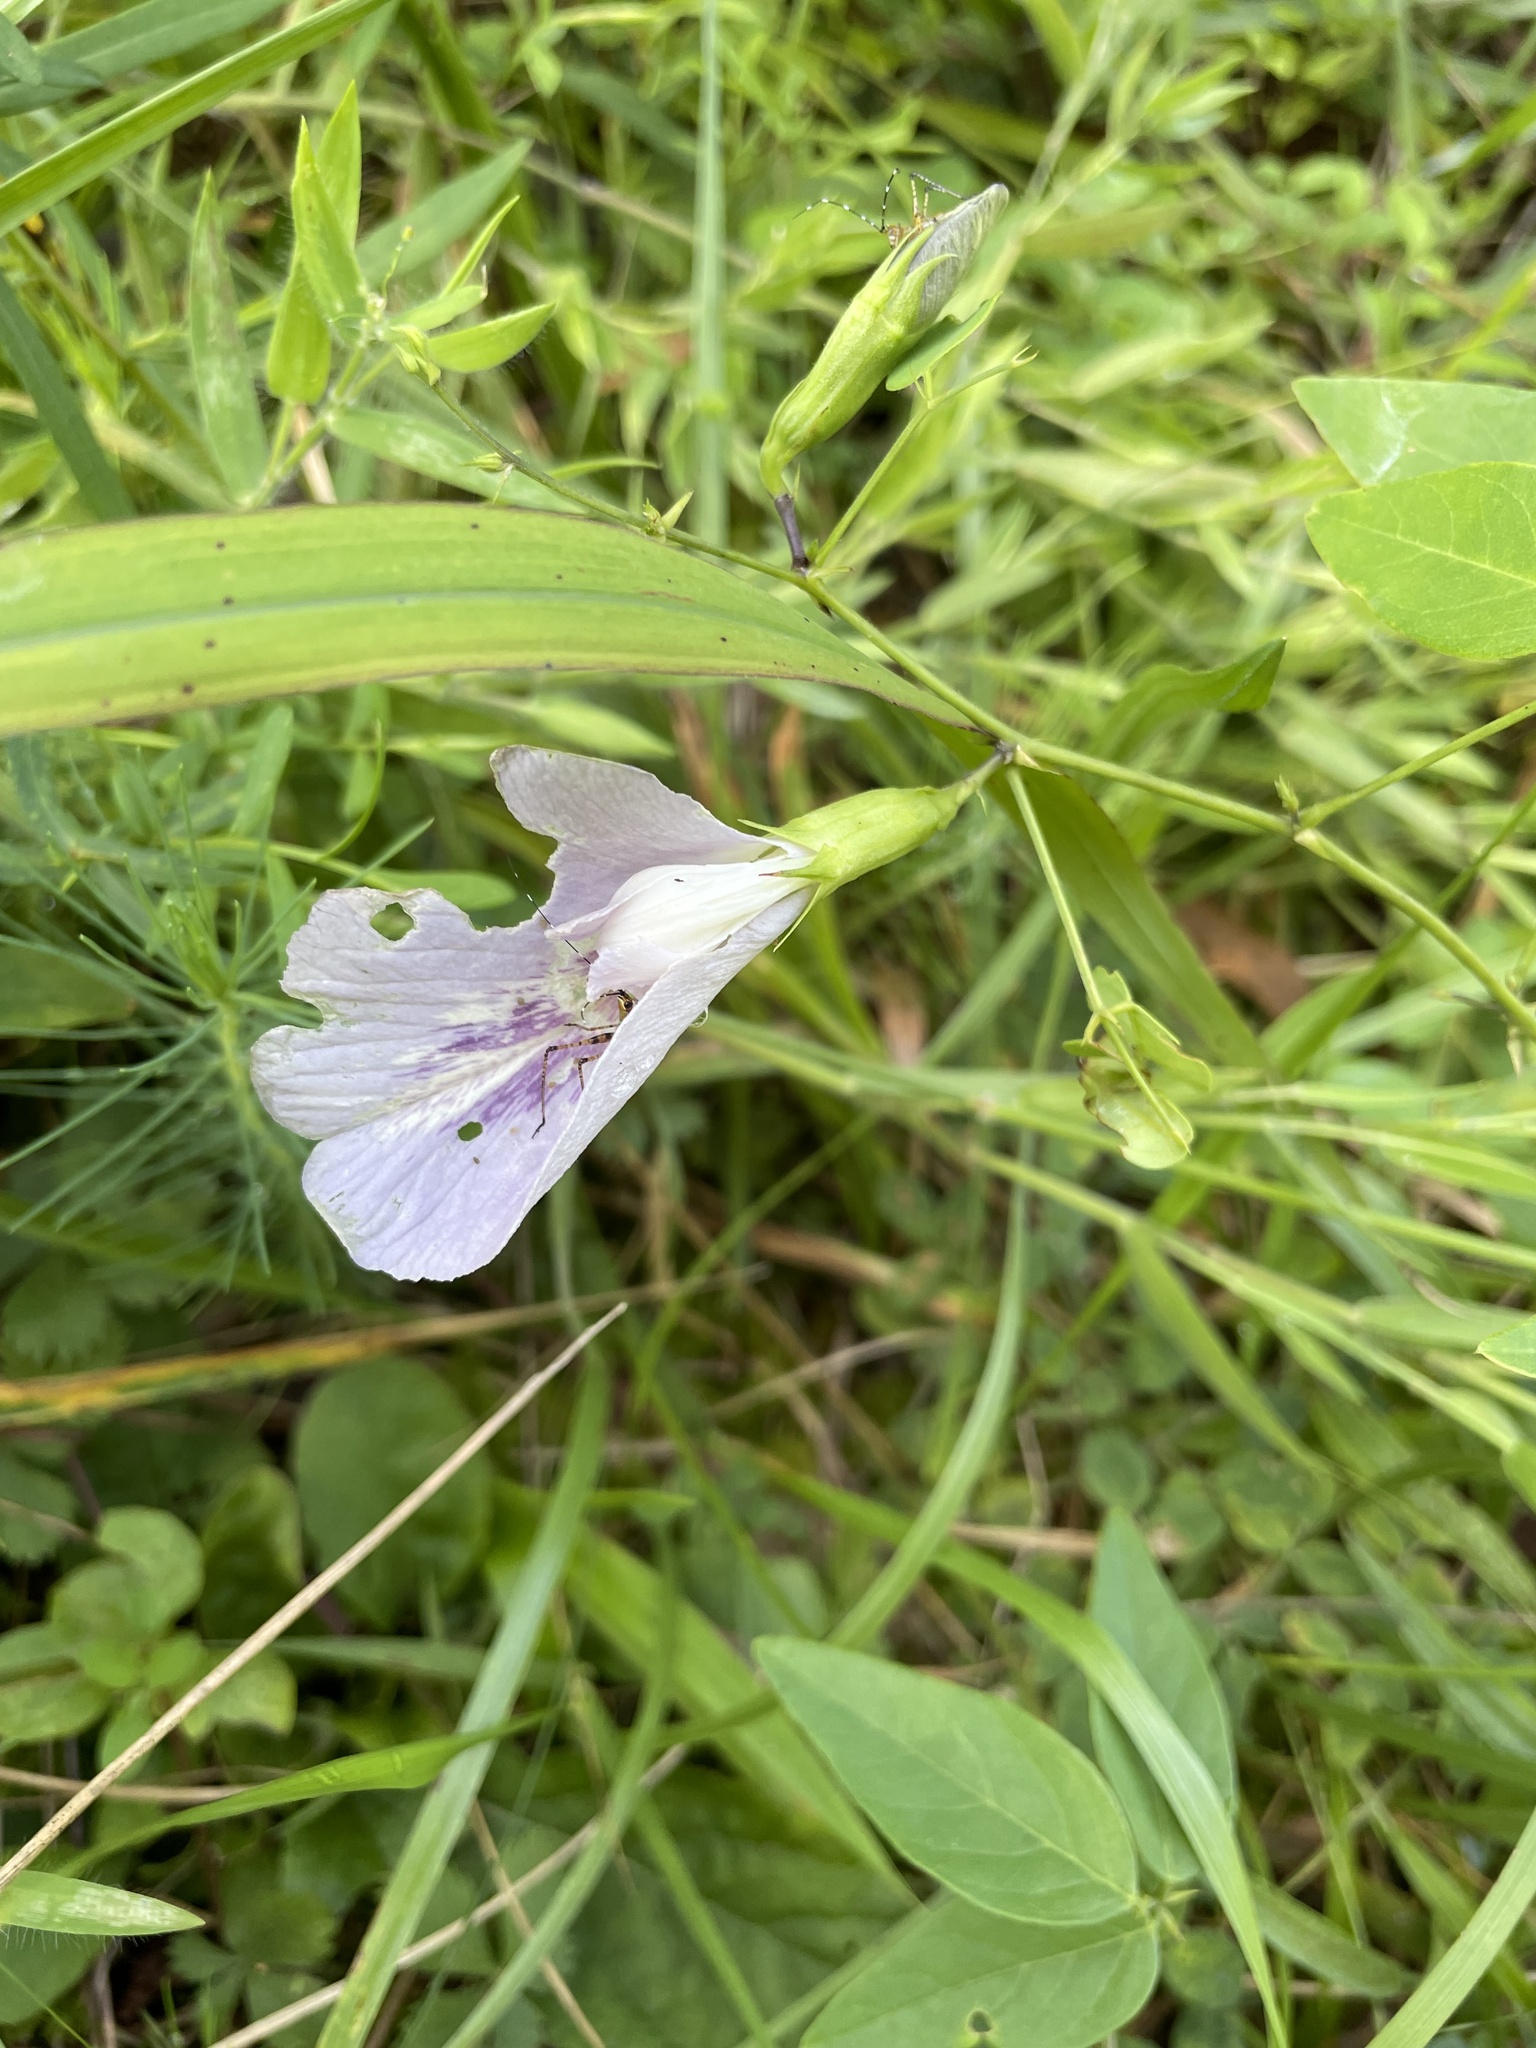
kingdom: Plantae
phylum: Tracheophyta
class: Magnoliopsida
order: Fabales
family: Fabaceae
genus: Clitoria
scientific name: Clitoria mariana
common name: Butterfly-pea
